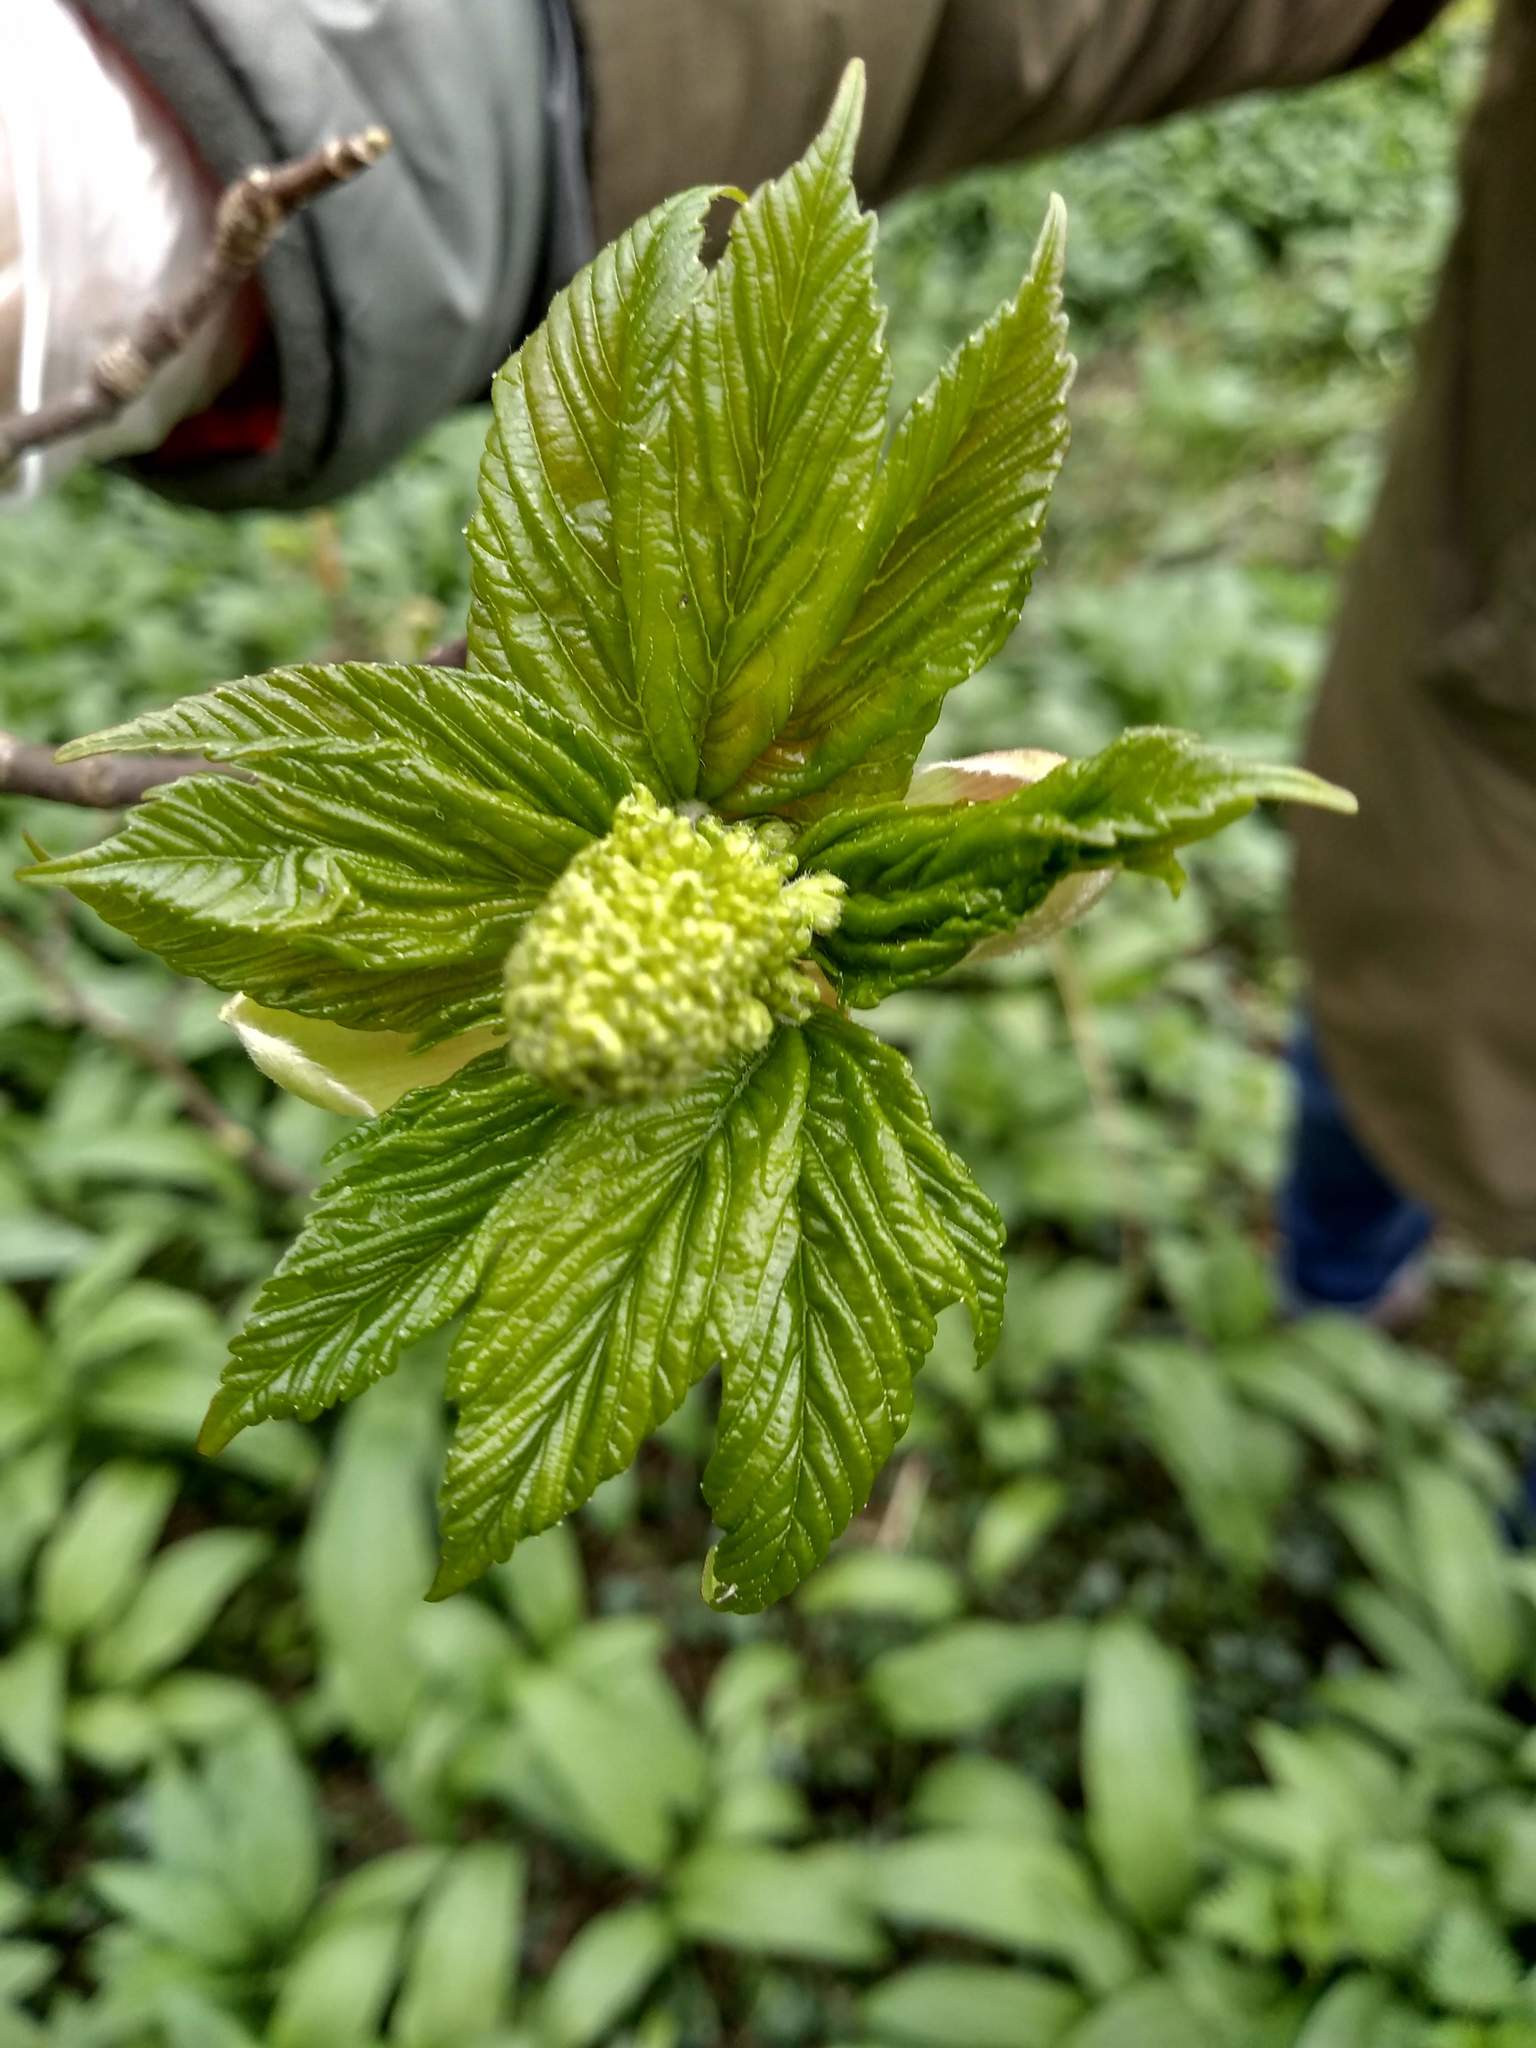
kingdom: Plantae
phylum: Tracheophyta
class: Magnoliopsida
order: Sapindales
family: Sapindaceae
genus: Acer
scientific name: Acer pseudoplatanus
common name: Sycamore
